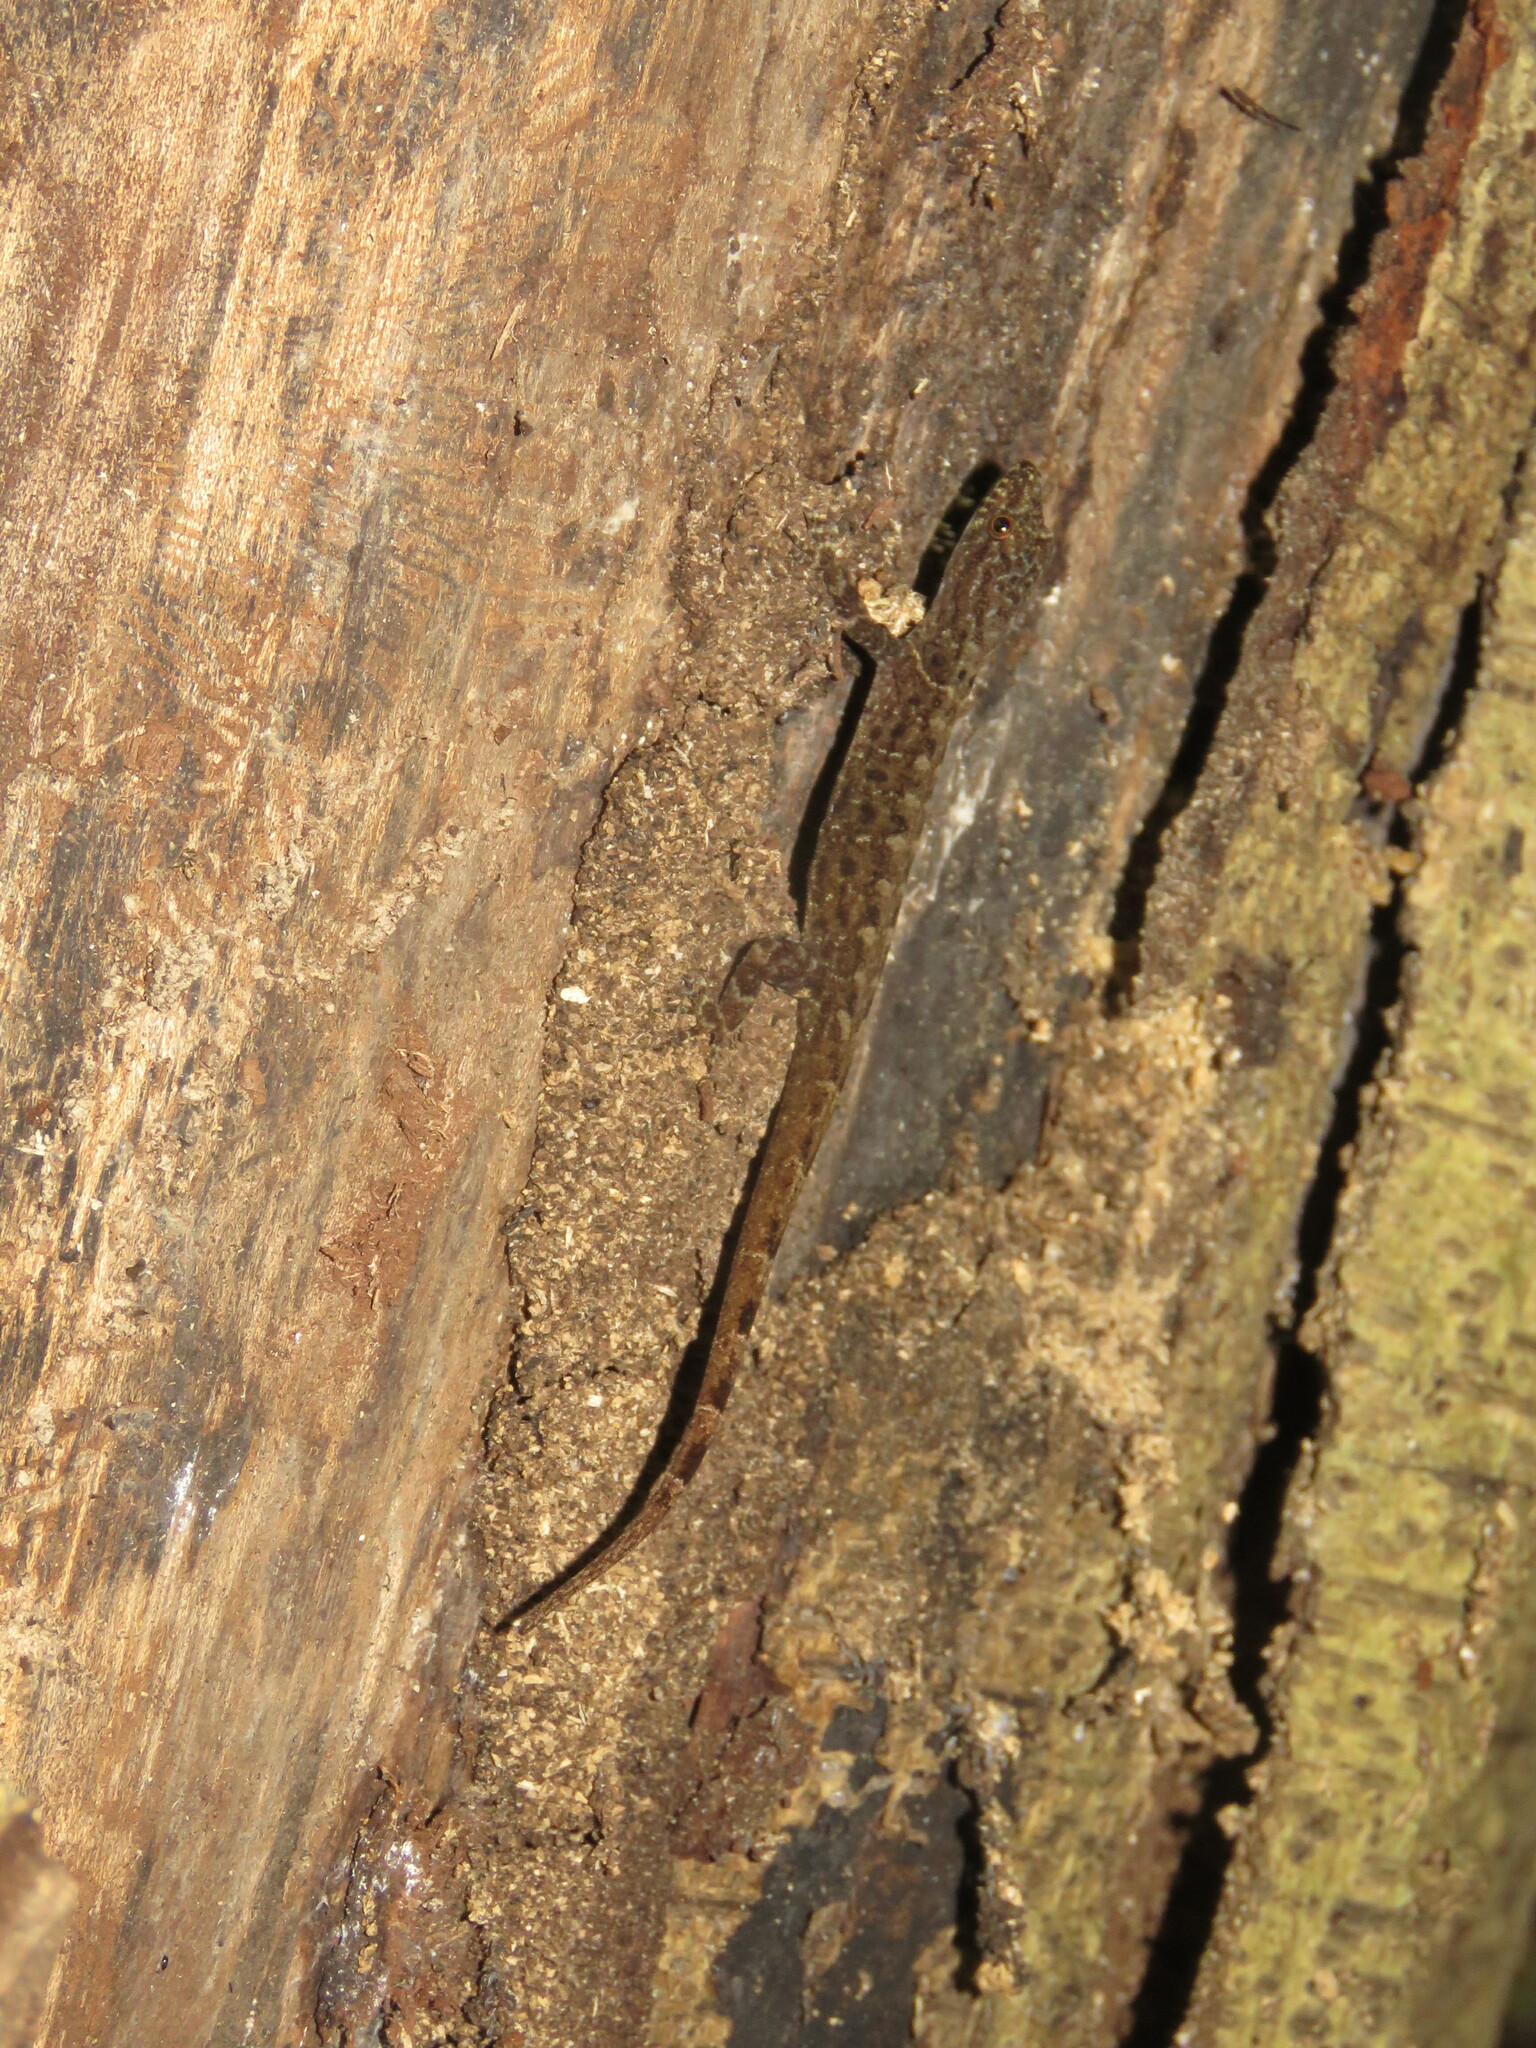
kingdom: Animalia
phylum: Chordata
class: Squamata
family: Sphaerodactylidae
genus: Gonatodes
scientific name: Gonatodes humeralis
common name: South american clawed gecko
